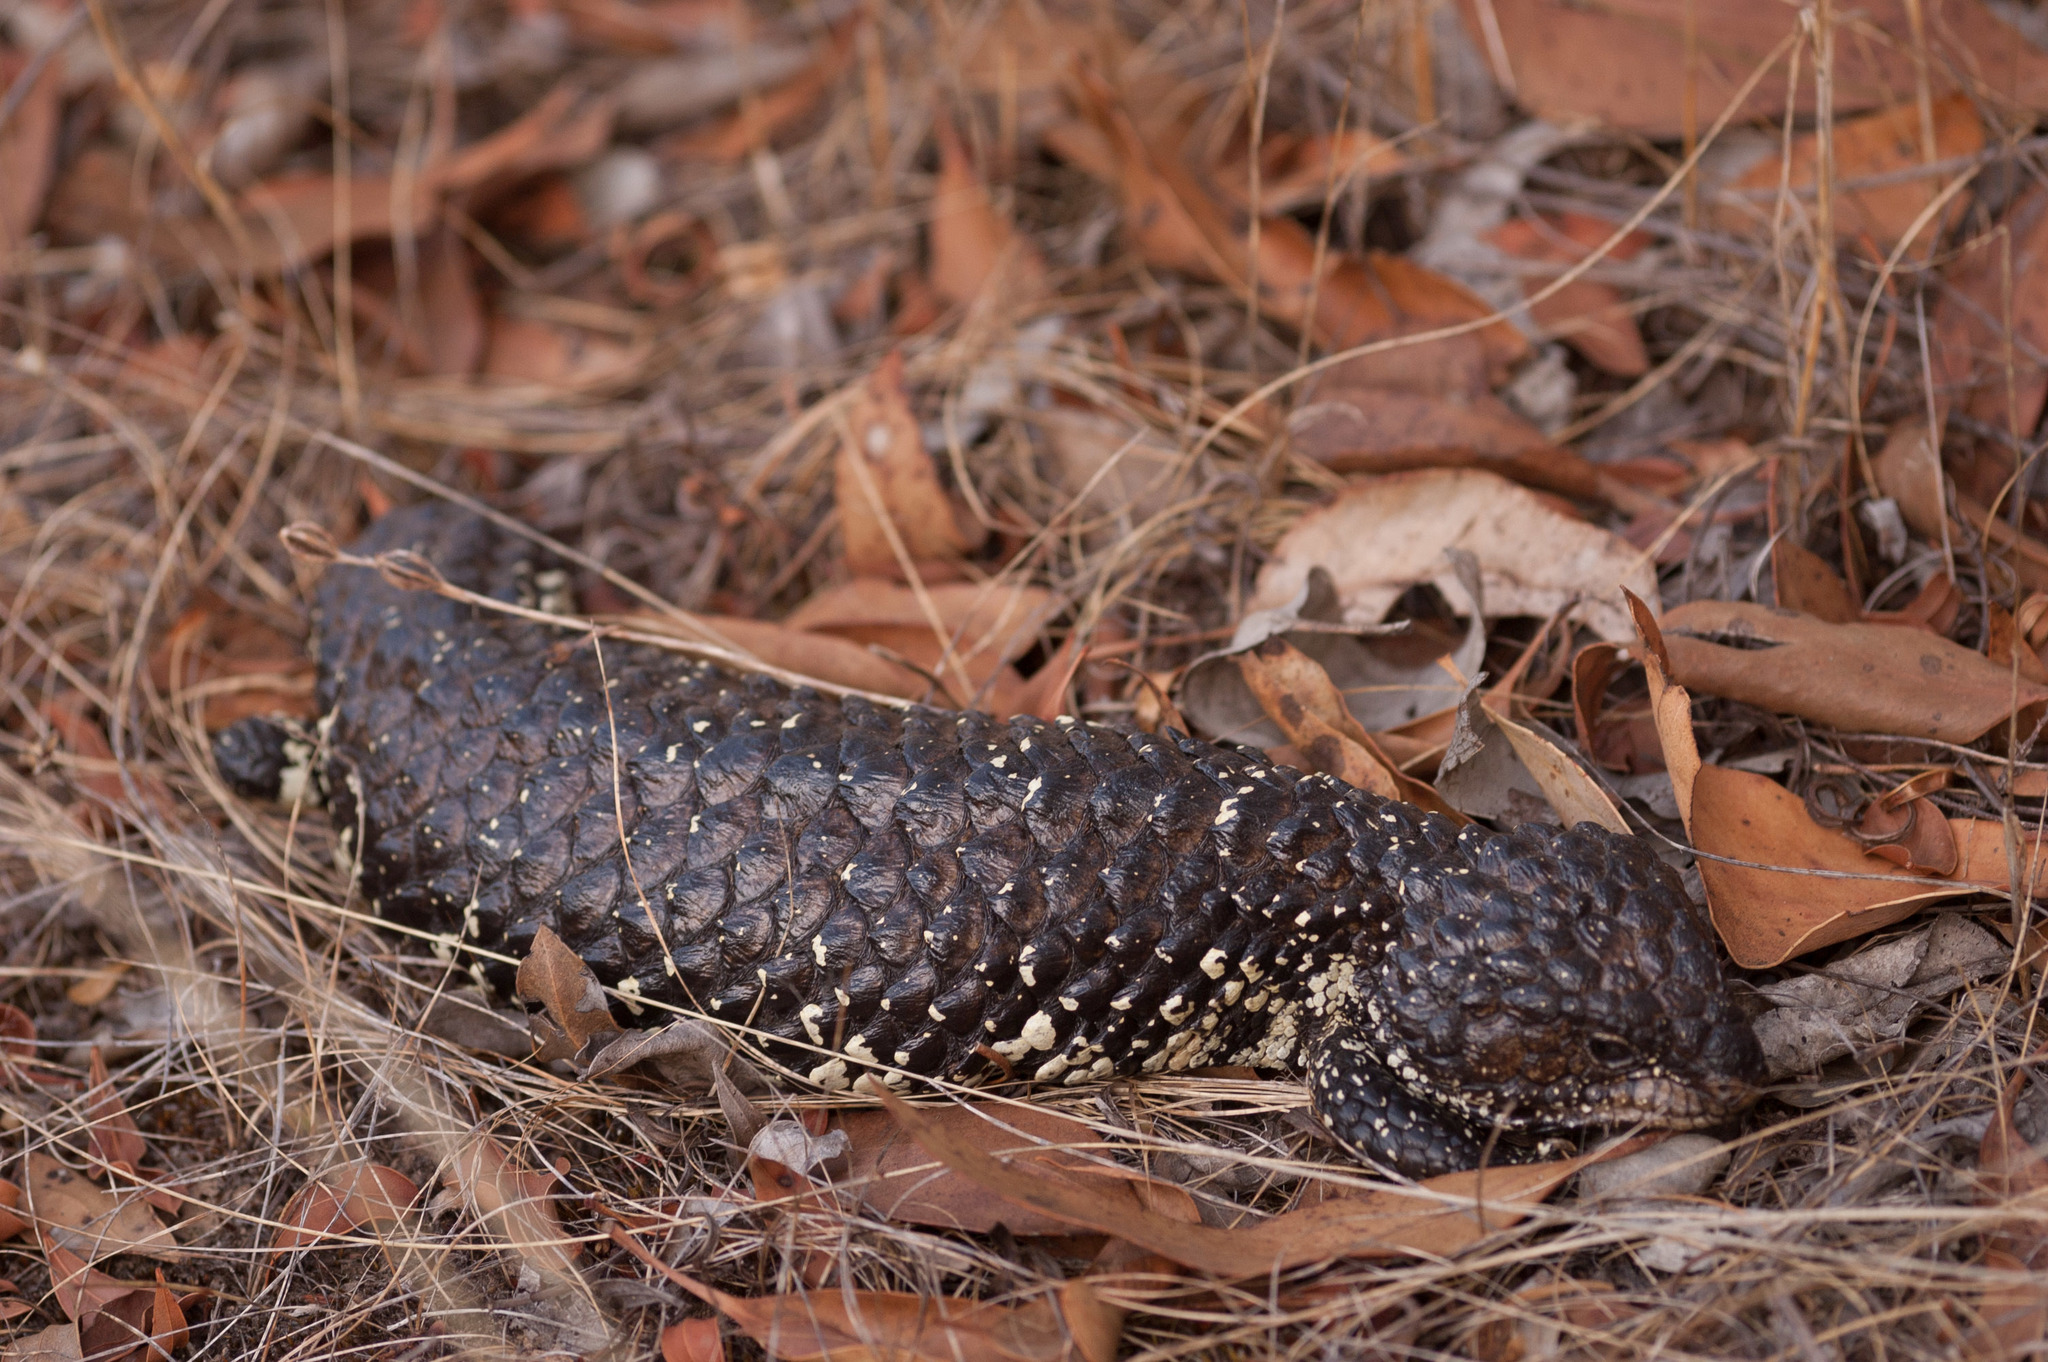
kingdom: Animalia
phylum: Chordata
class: Squamata
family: Scincidae
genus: Tiliqua
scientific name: Tiliqua rugosa
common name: Pinecone lizard
